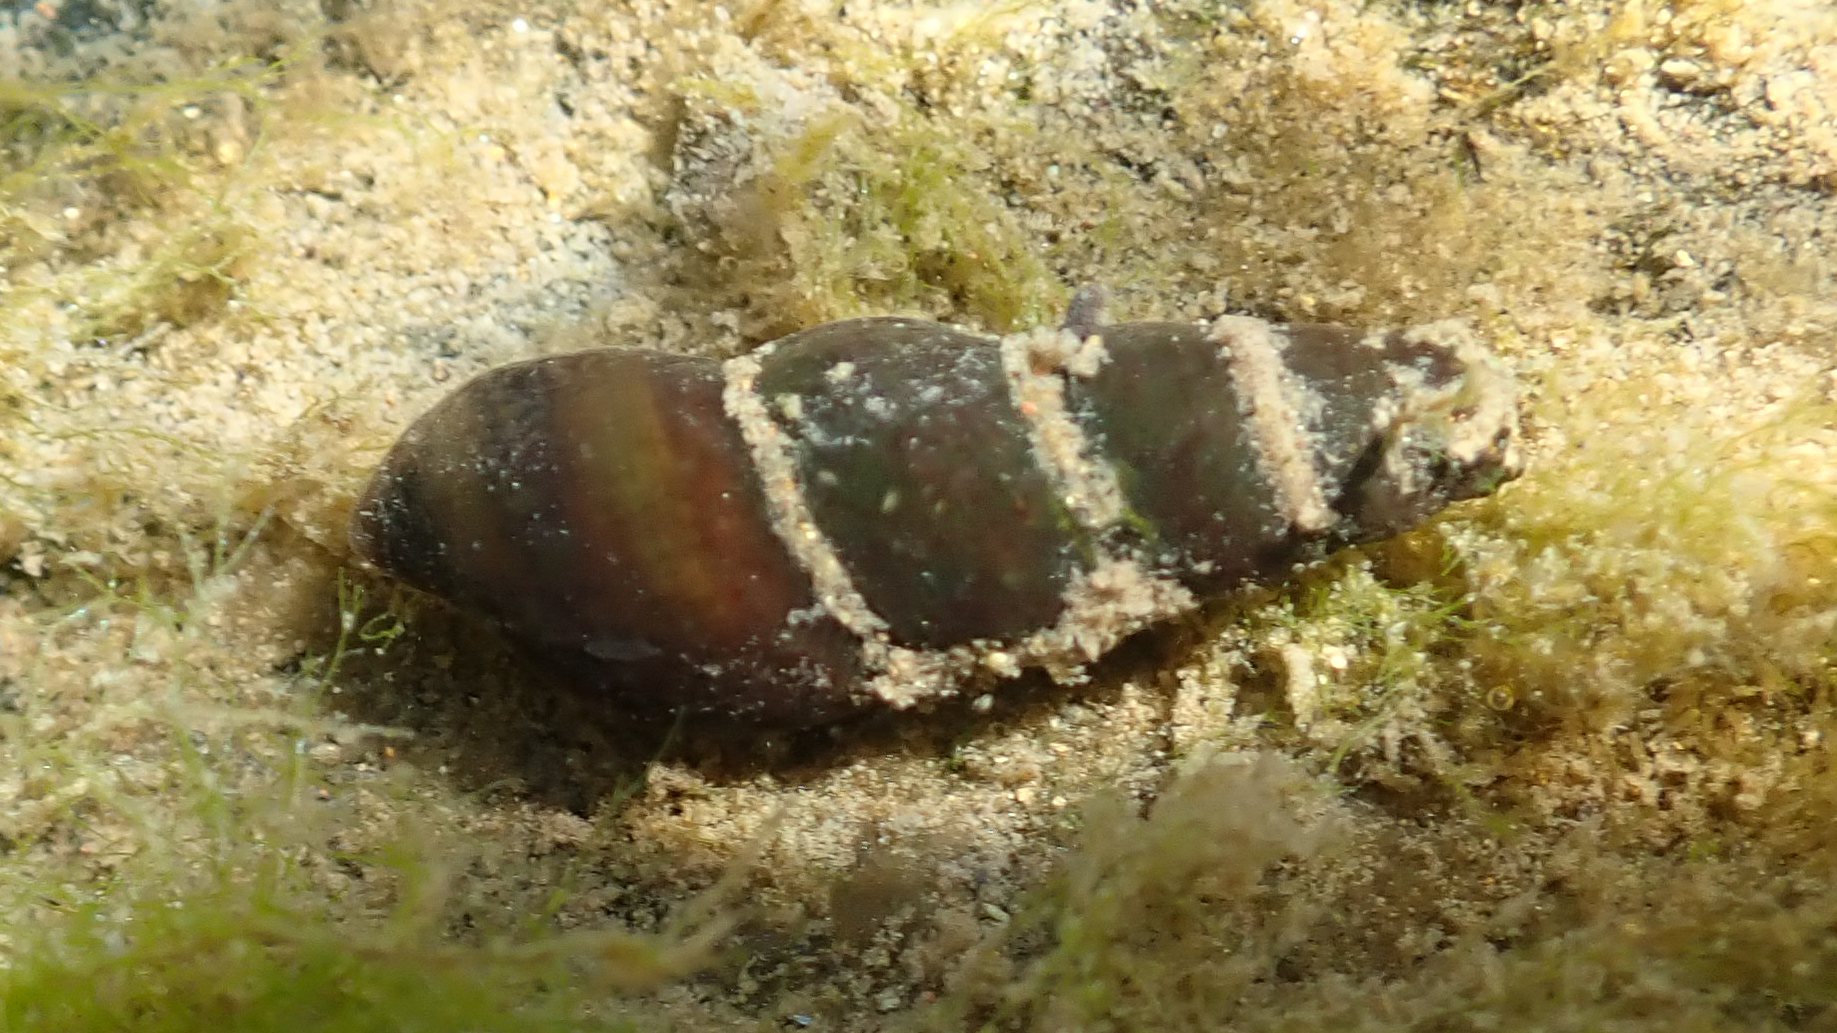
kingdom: Animalia
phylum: Mollusca
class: Gastropoda
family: Semisulcospiridae
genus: Juga
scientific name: Juga plicifera
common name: Pleated juga
